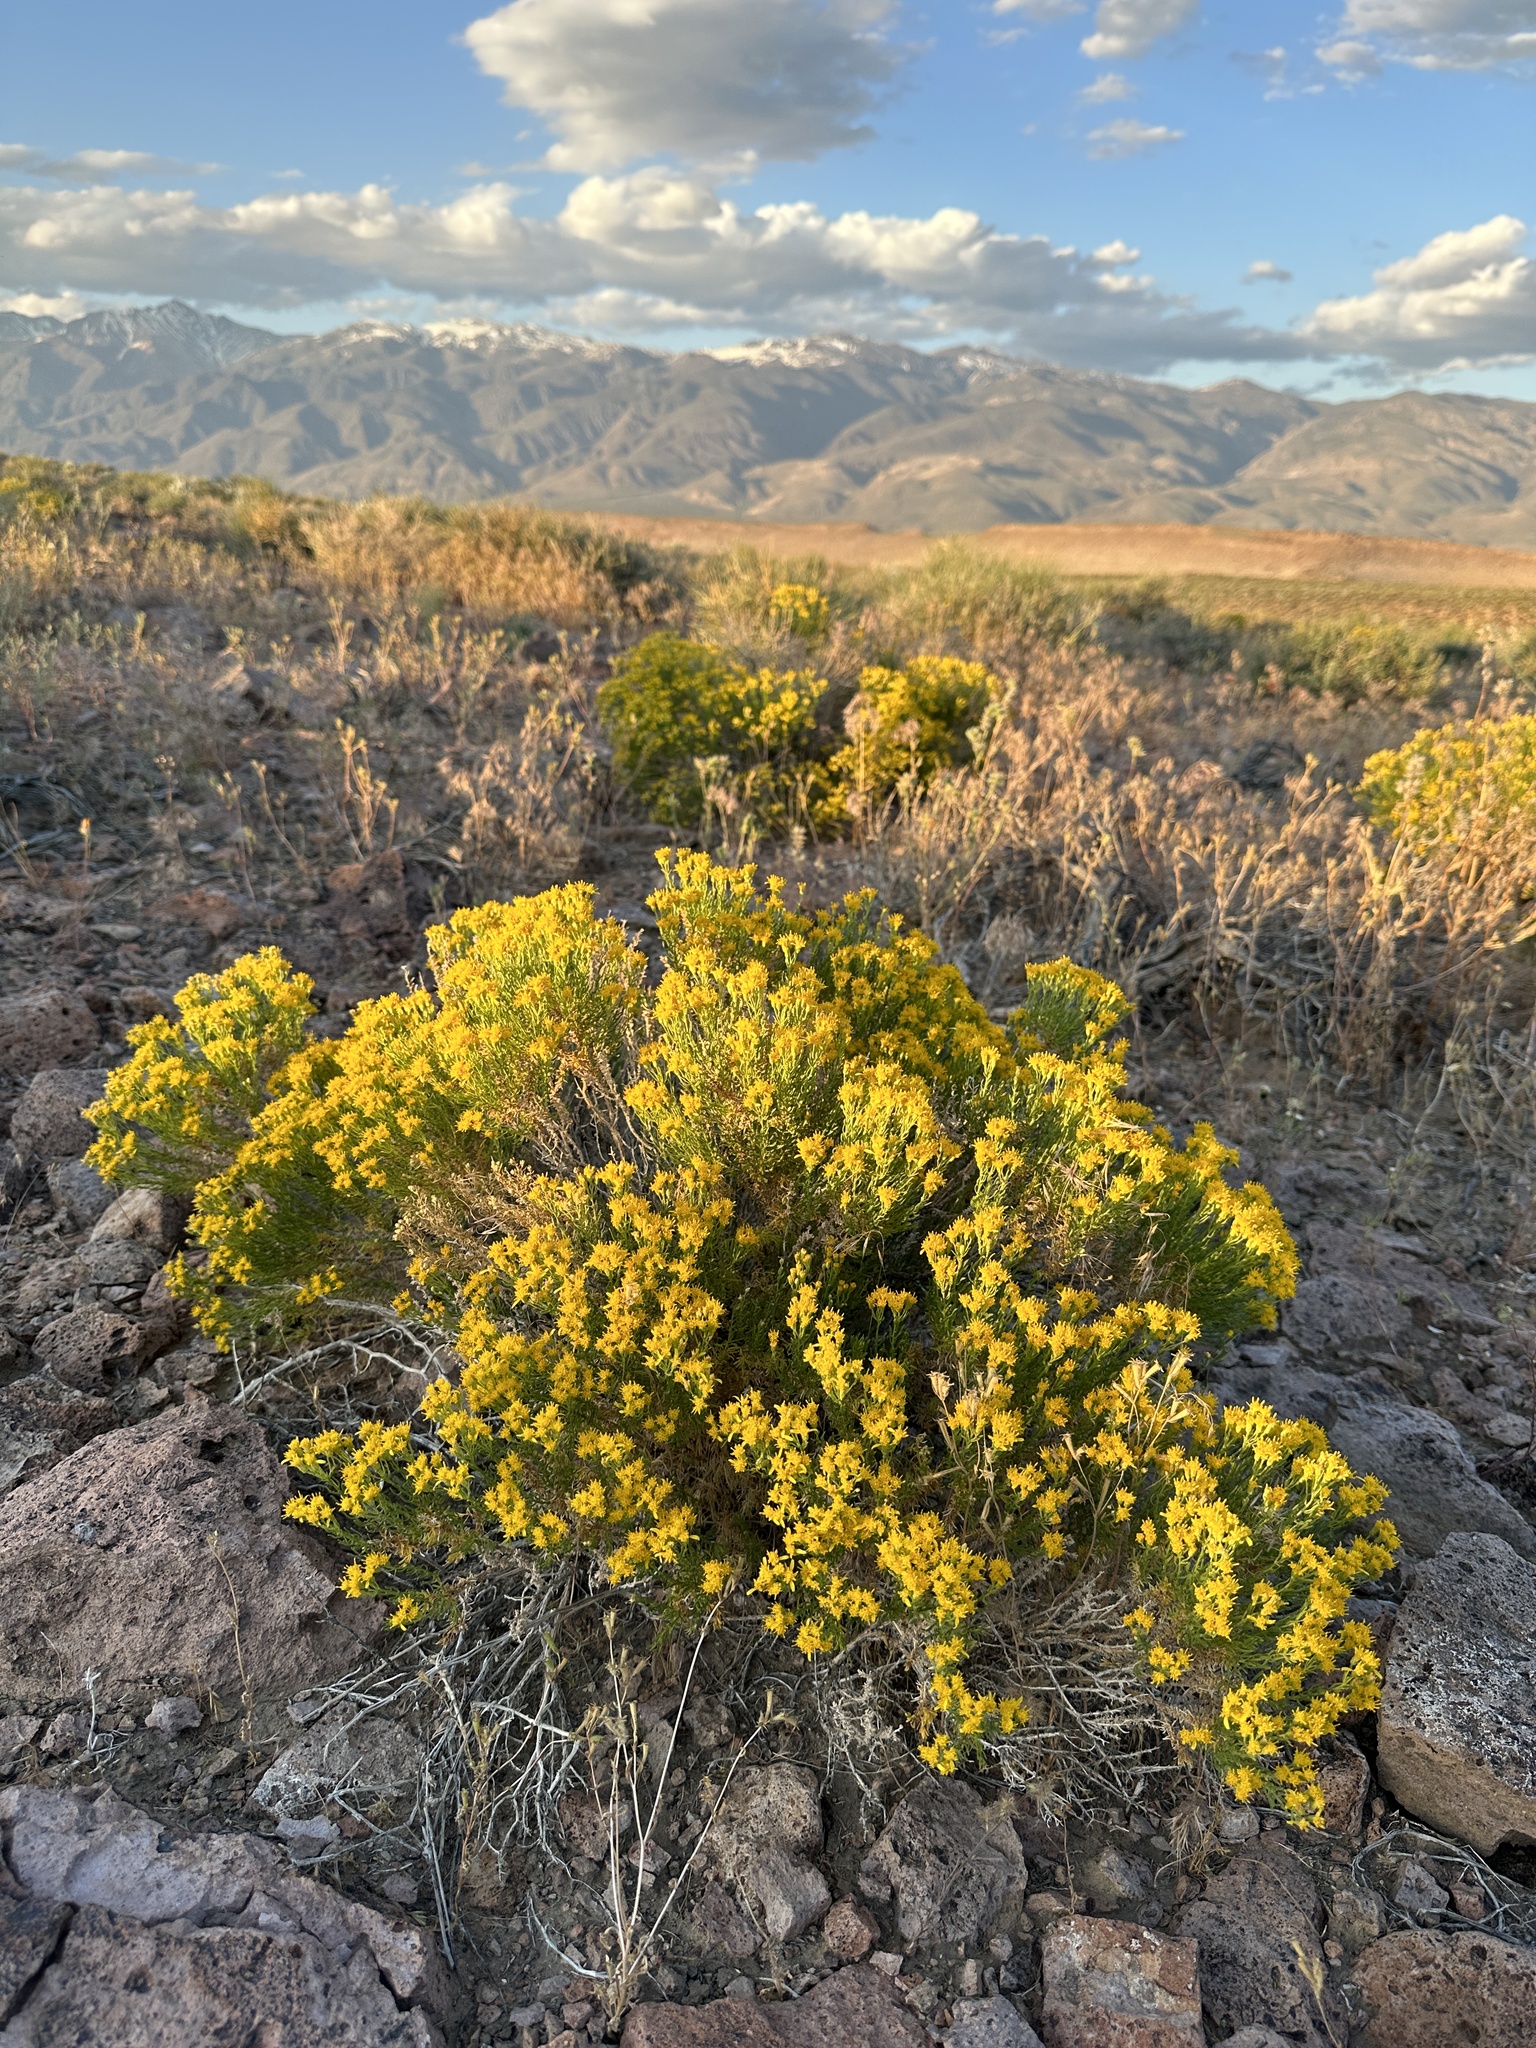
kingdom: Plantae
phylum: Tracheophyta
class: Magnoliopsida
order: Asterales
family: Asteraceae
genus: Ericameria
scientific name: Ericameria cooperi
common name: Cooper's goldenbush
